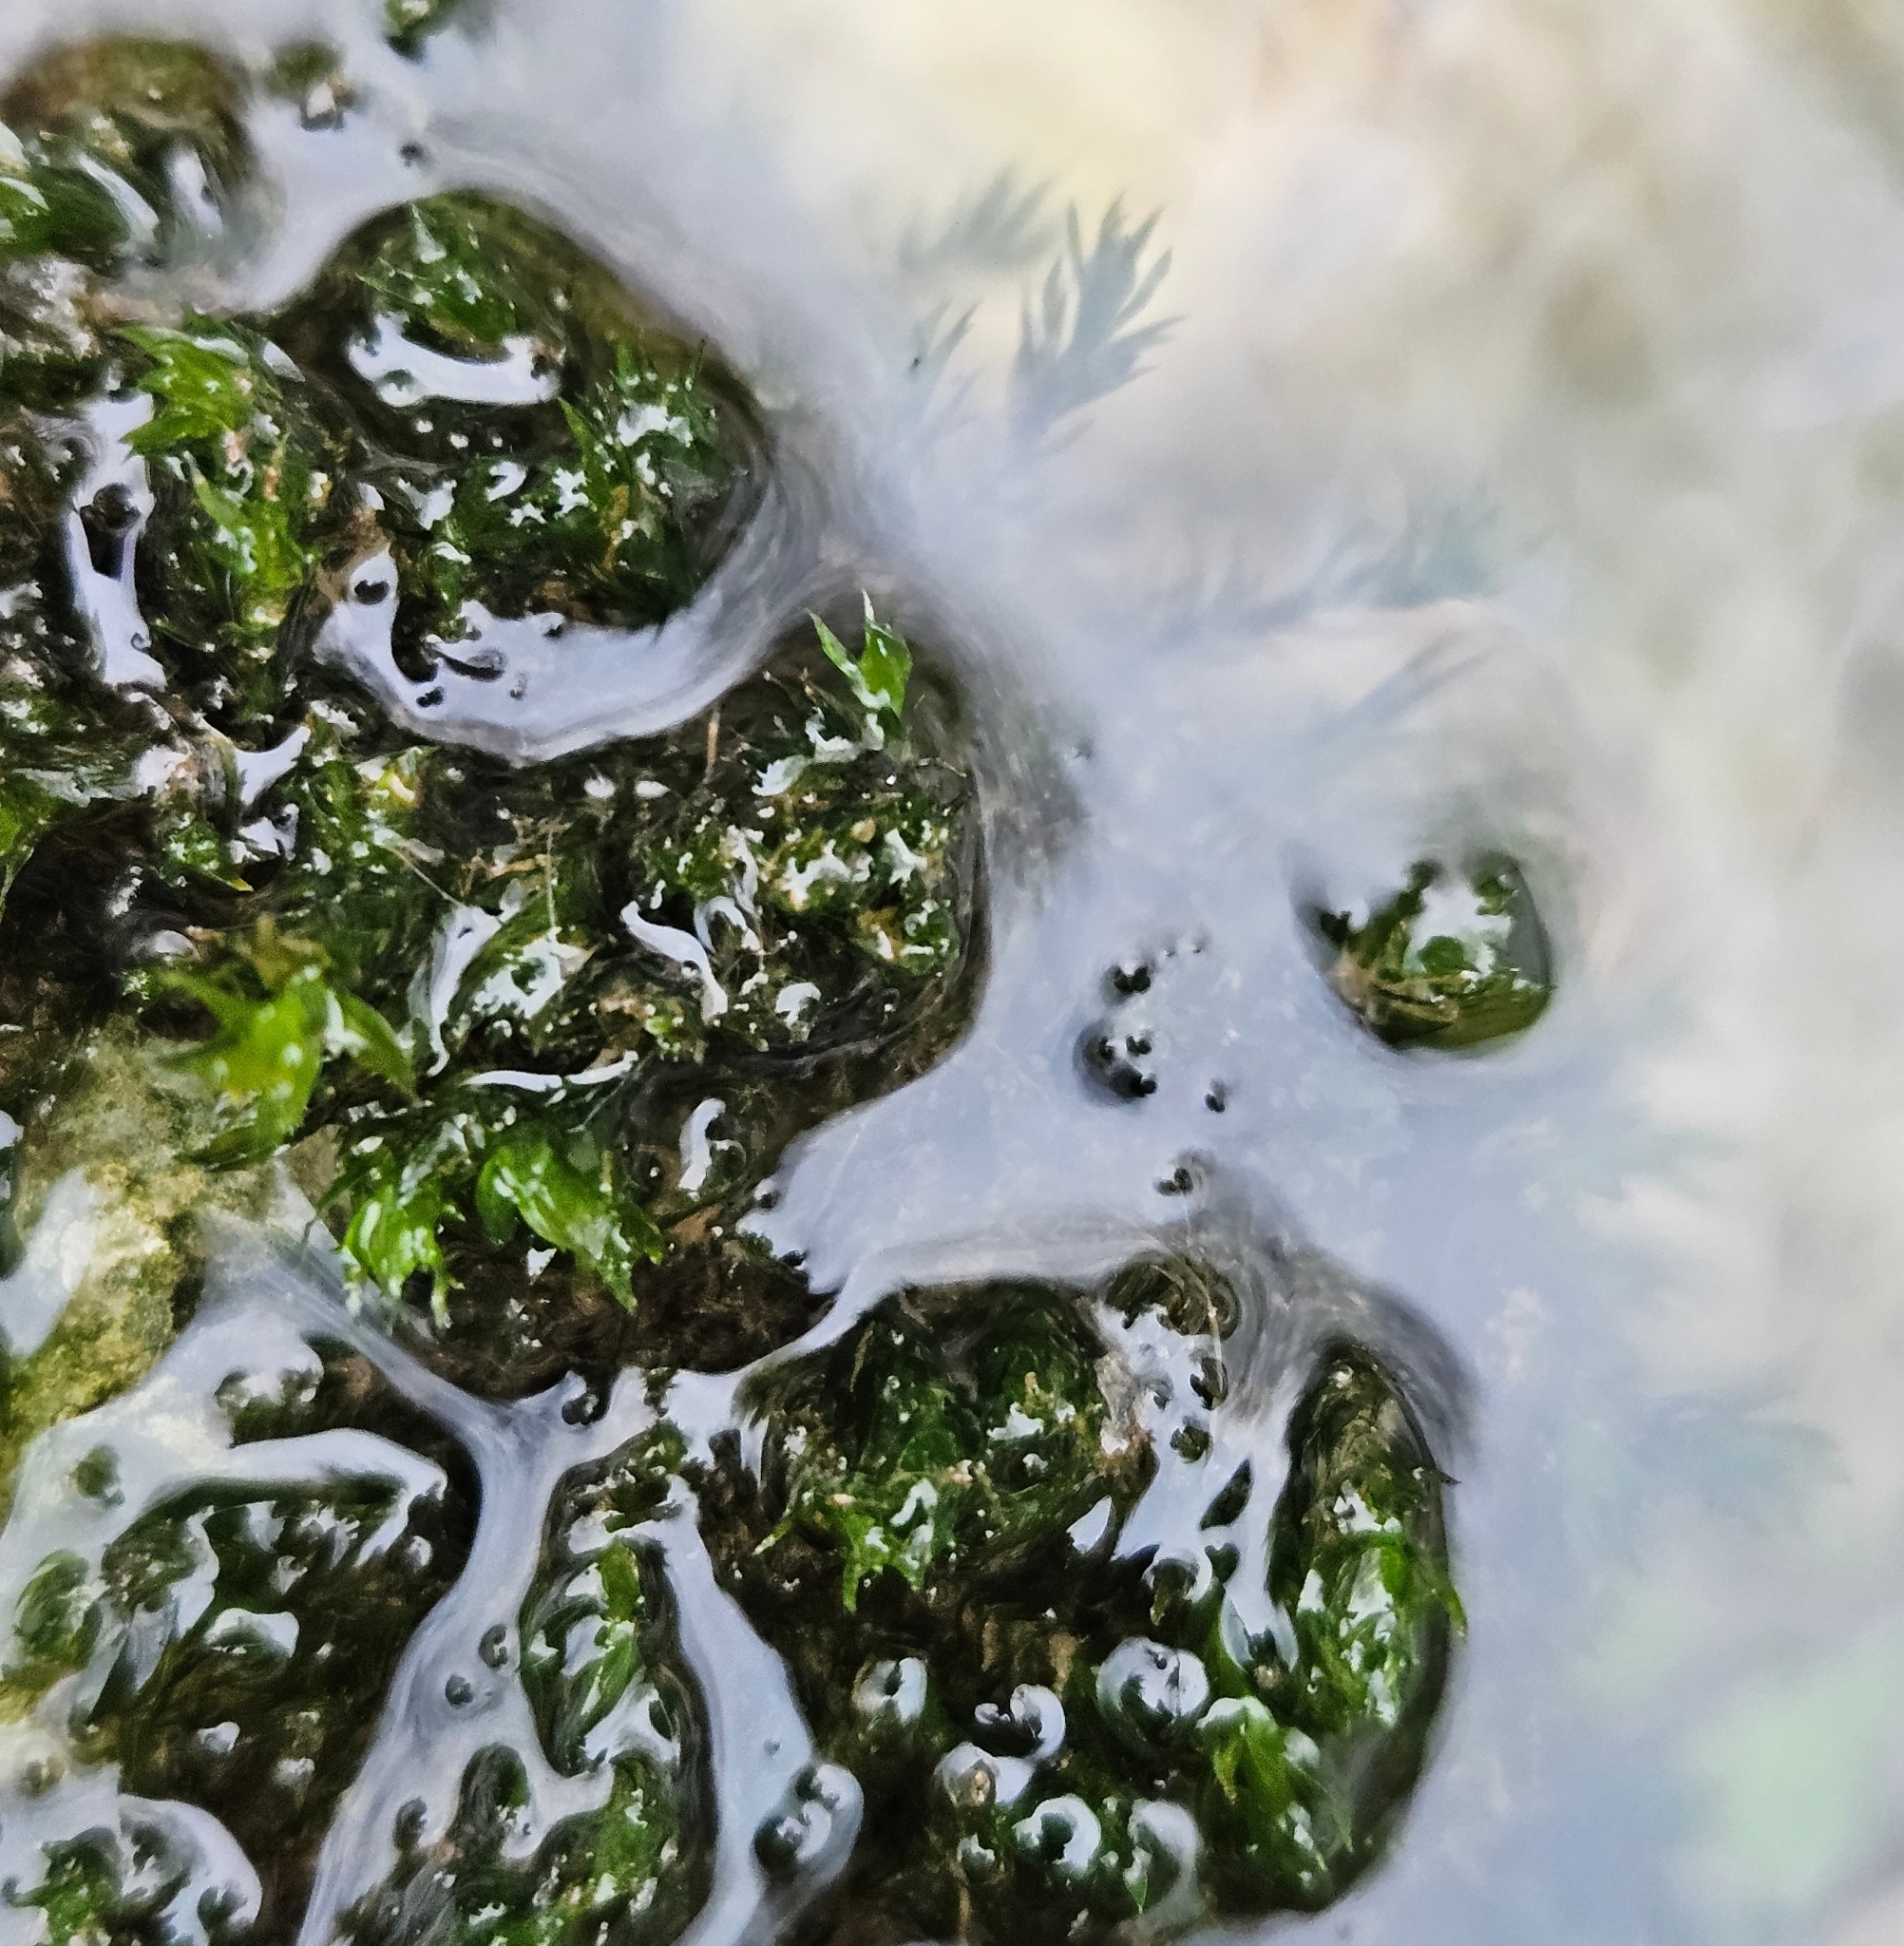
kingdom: Plantae
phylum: Bryophyta
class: Bryopsida
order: Pottiales
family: Pottiaceae
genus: Cinclidotus
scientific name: Cinclidotus fontinaloides
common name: Smaller lattice-moss
